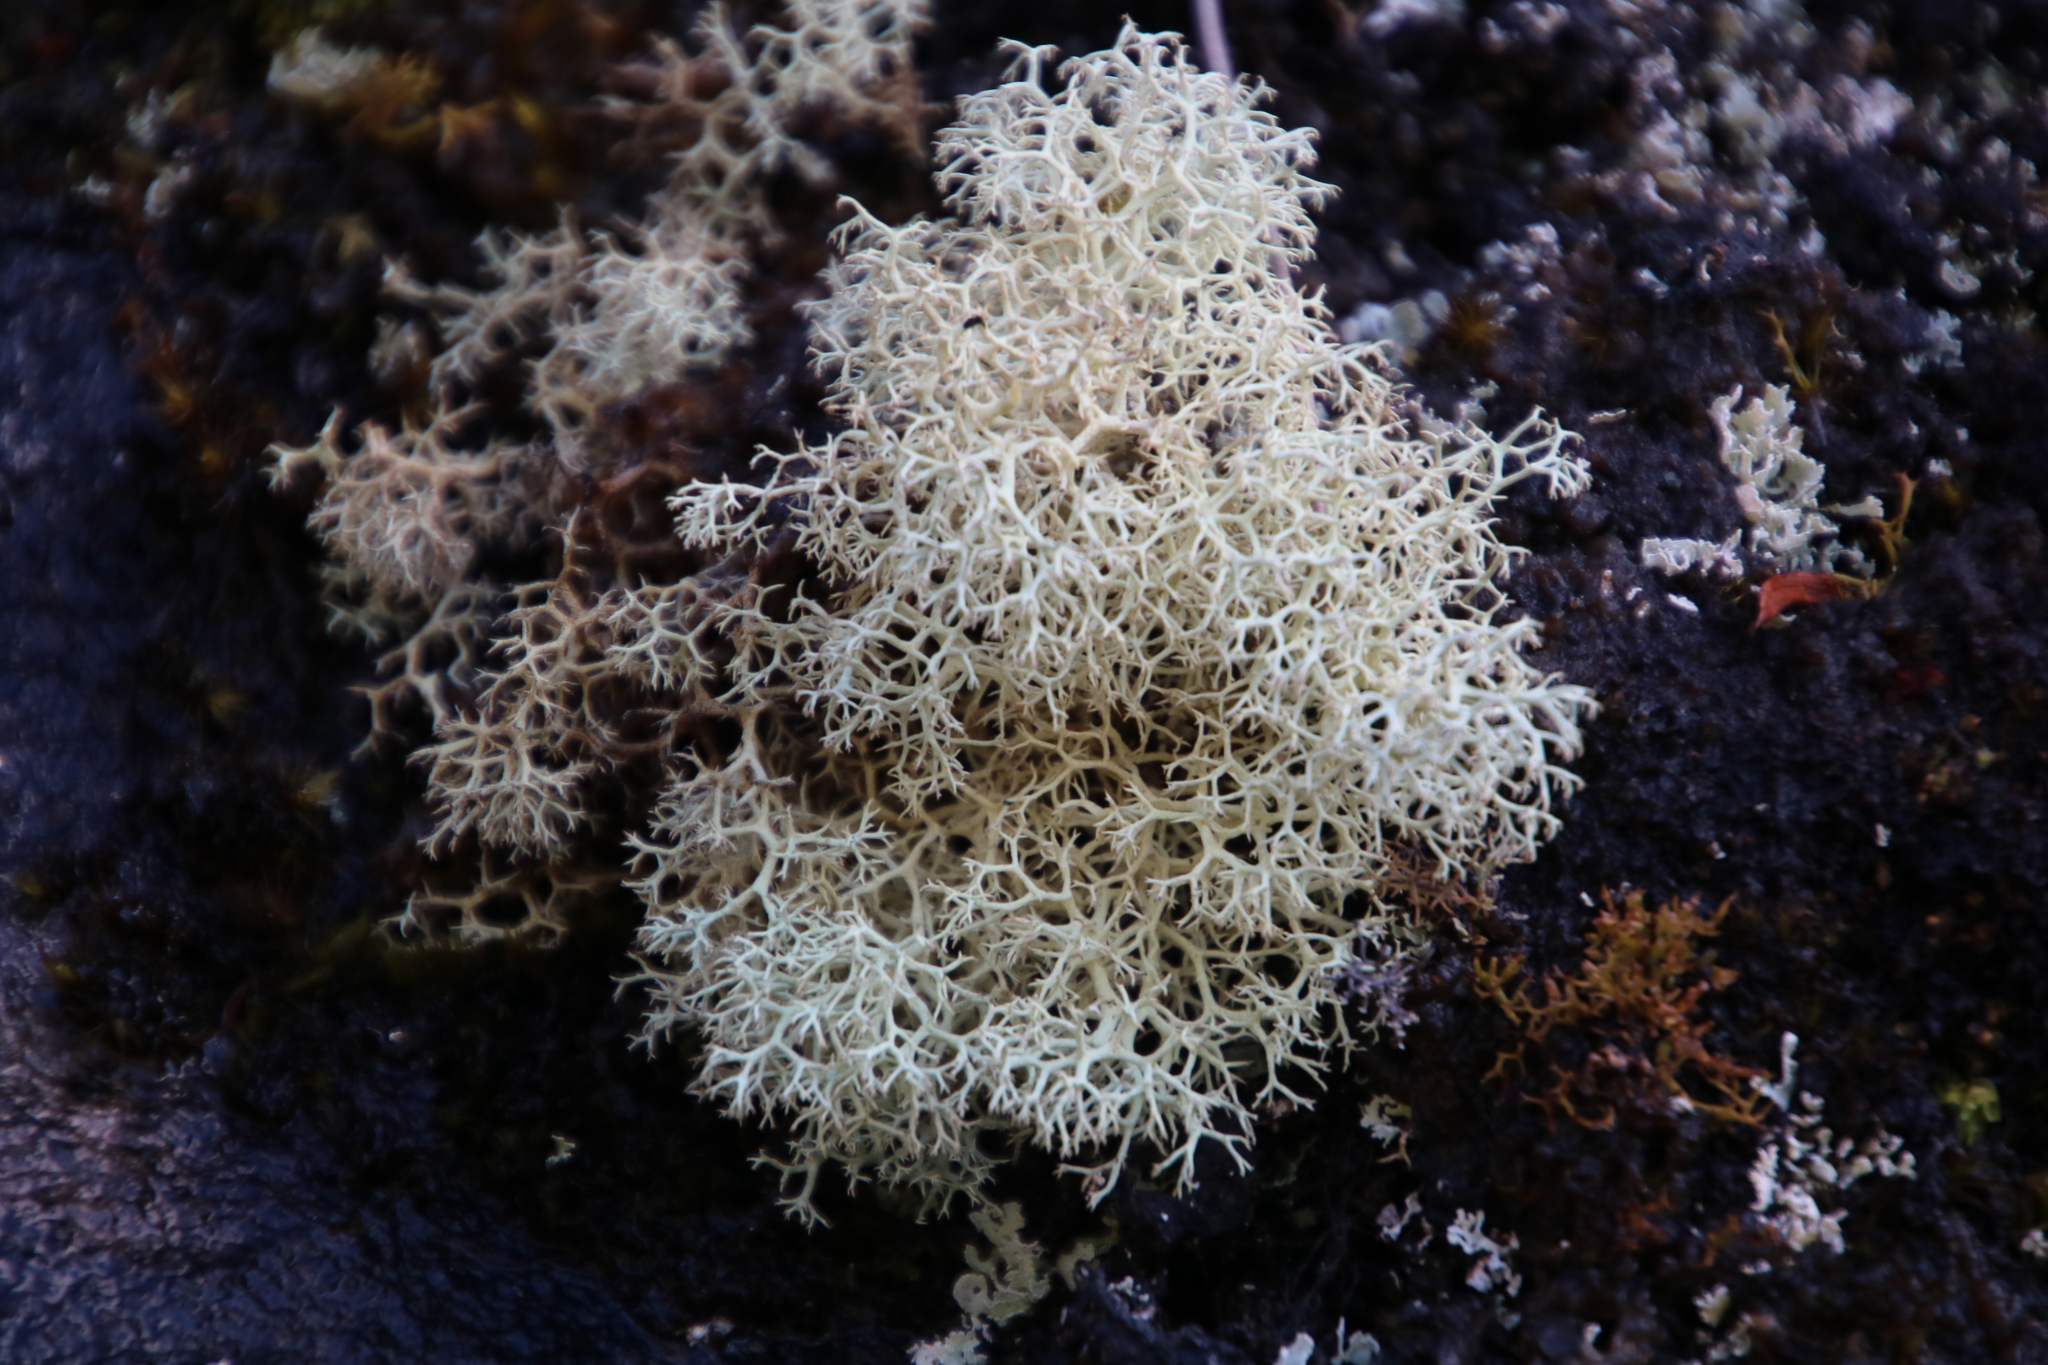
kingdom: Fungi
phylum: Ascomycota
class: Lecanoromycetes
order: Lecanorales
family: Cladoniaceae
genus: Cladonia
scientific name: Cladonia confusa
